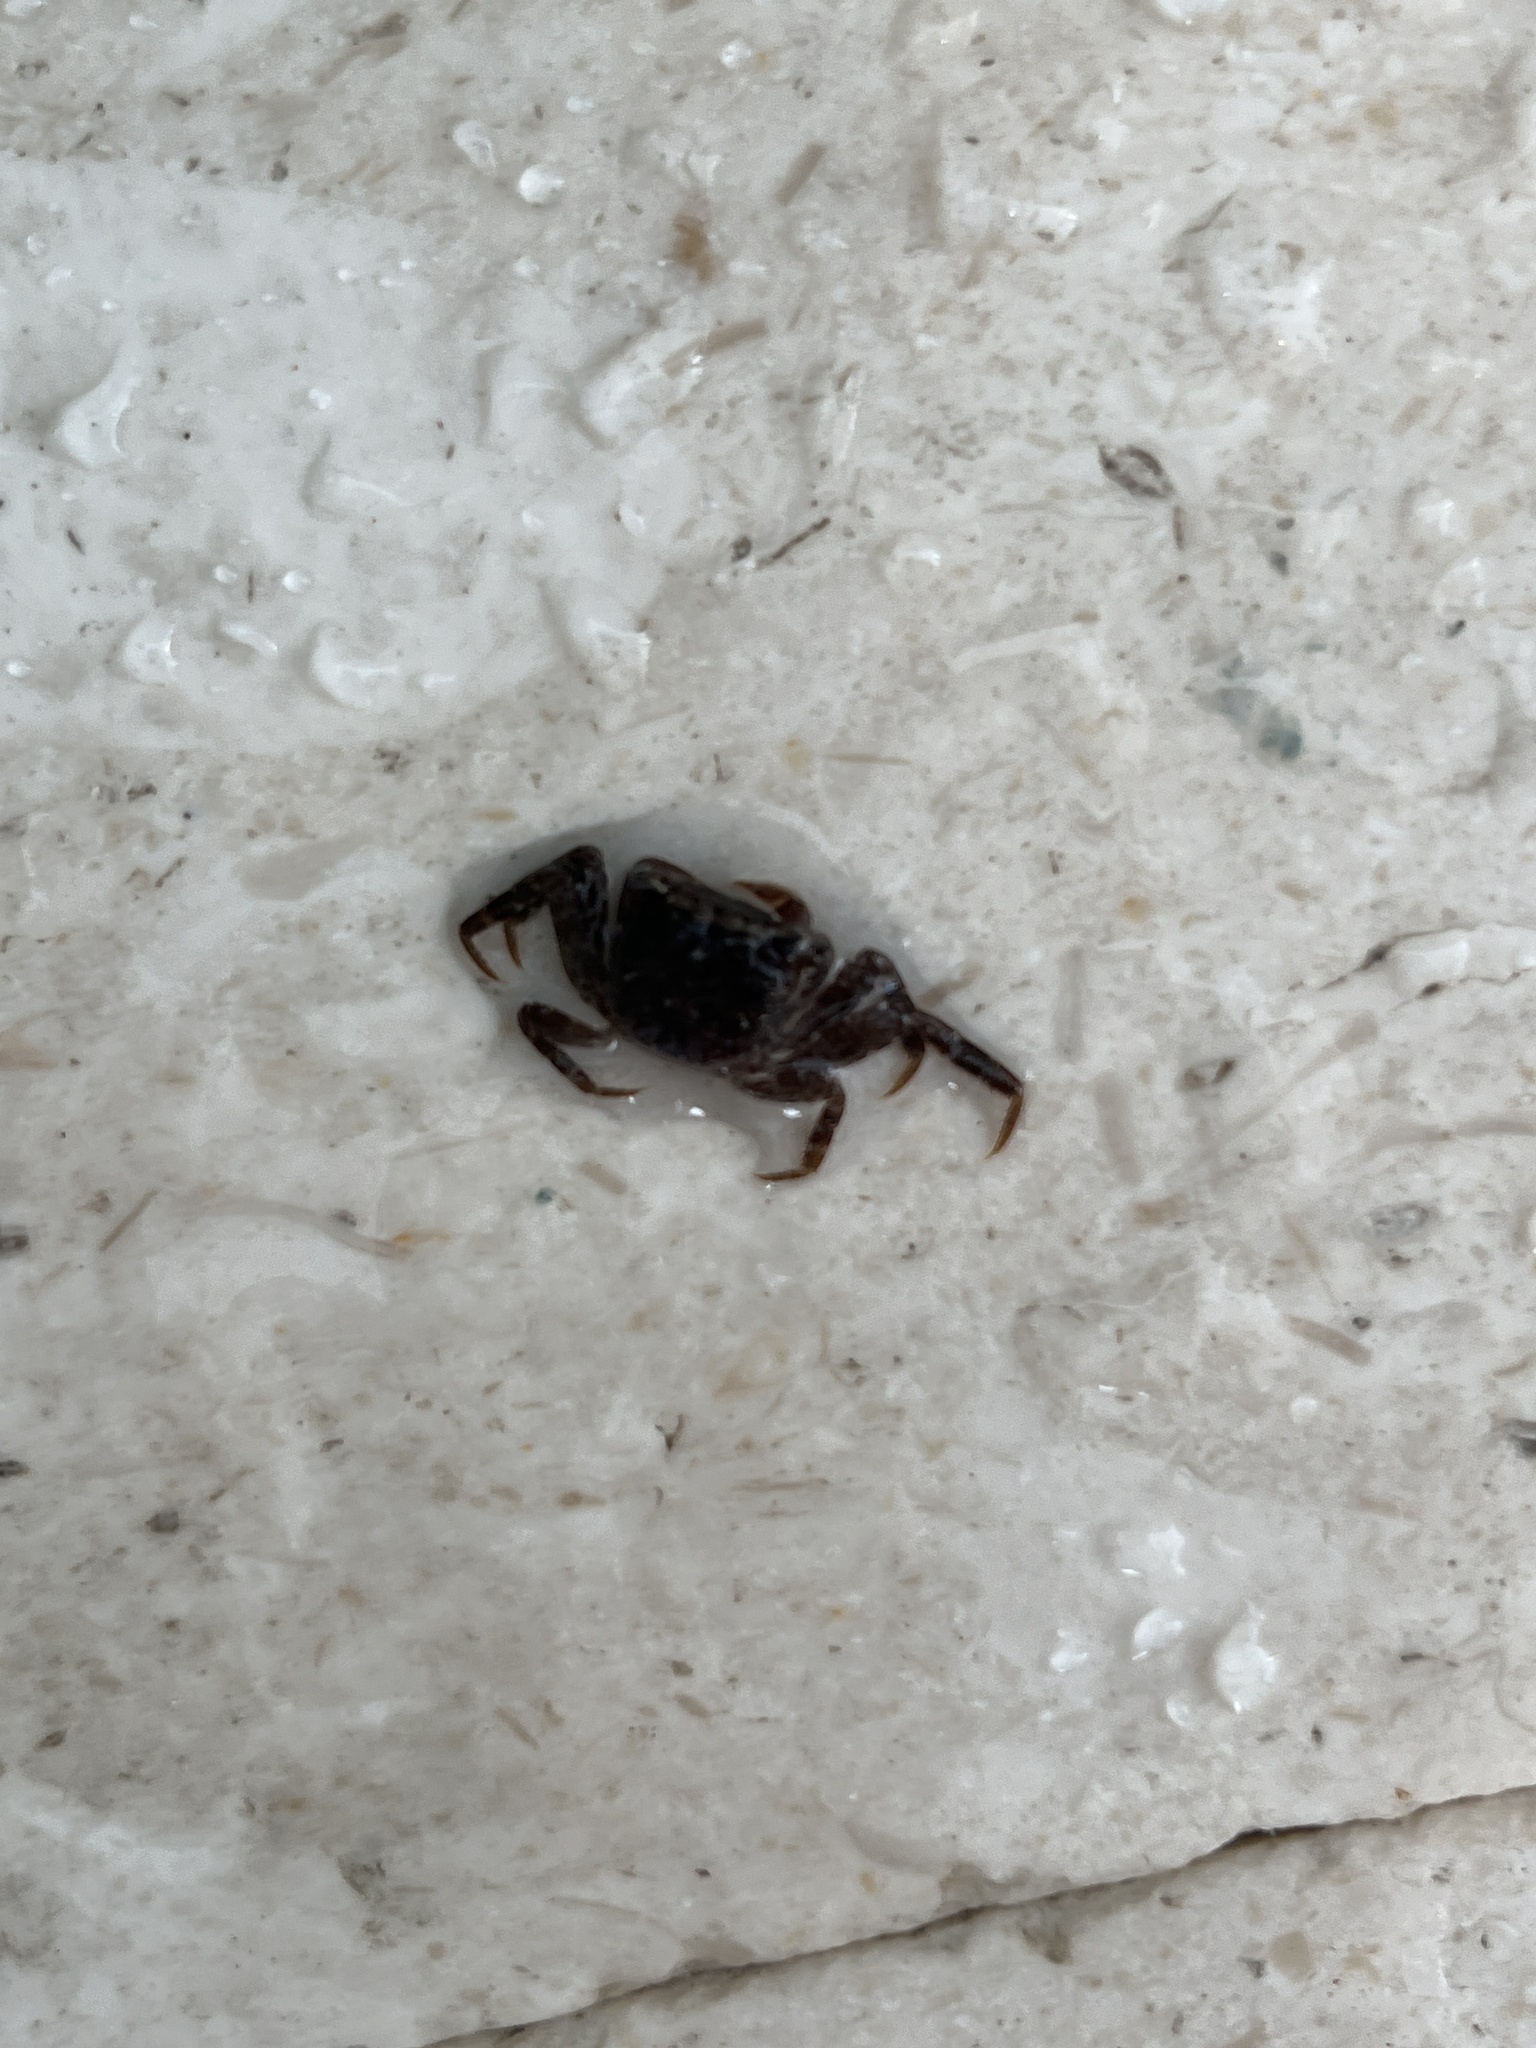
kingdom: Animalia
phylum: Arthropoda
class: Malacostraca
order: Decapoda
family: Sesarmidae
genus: Armases
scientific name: Armases cinereum
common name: Squareback marsh crab
